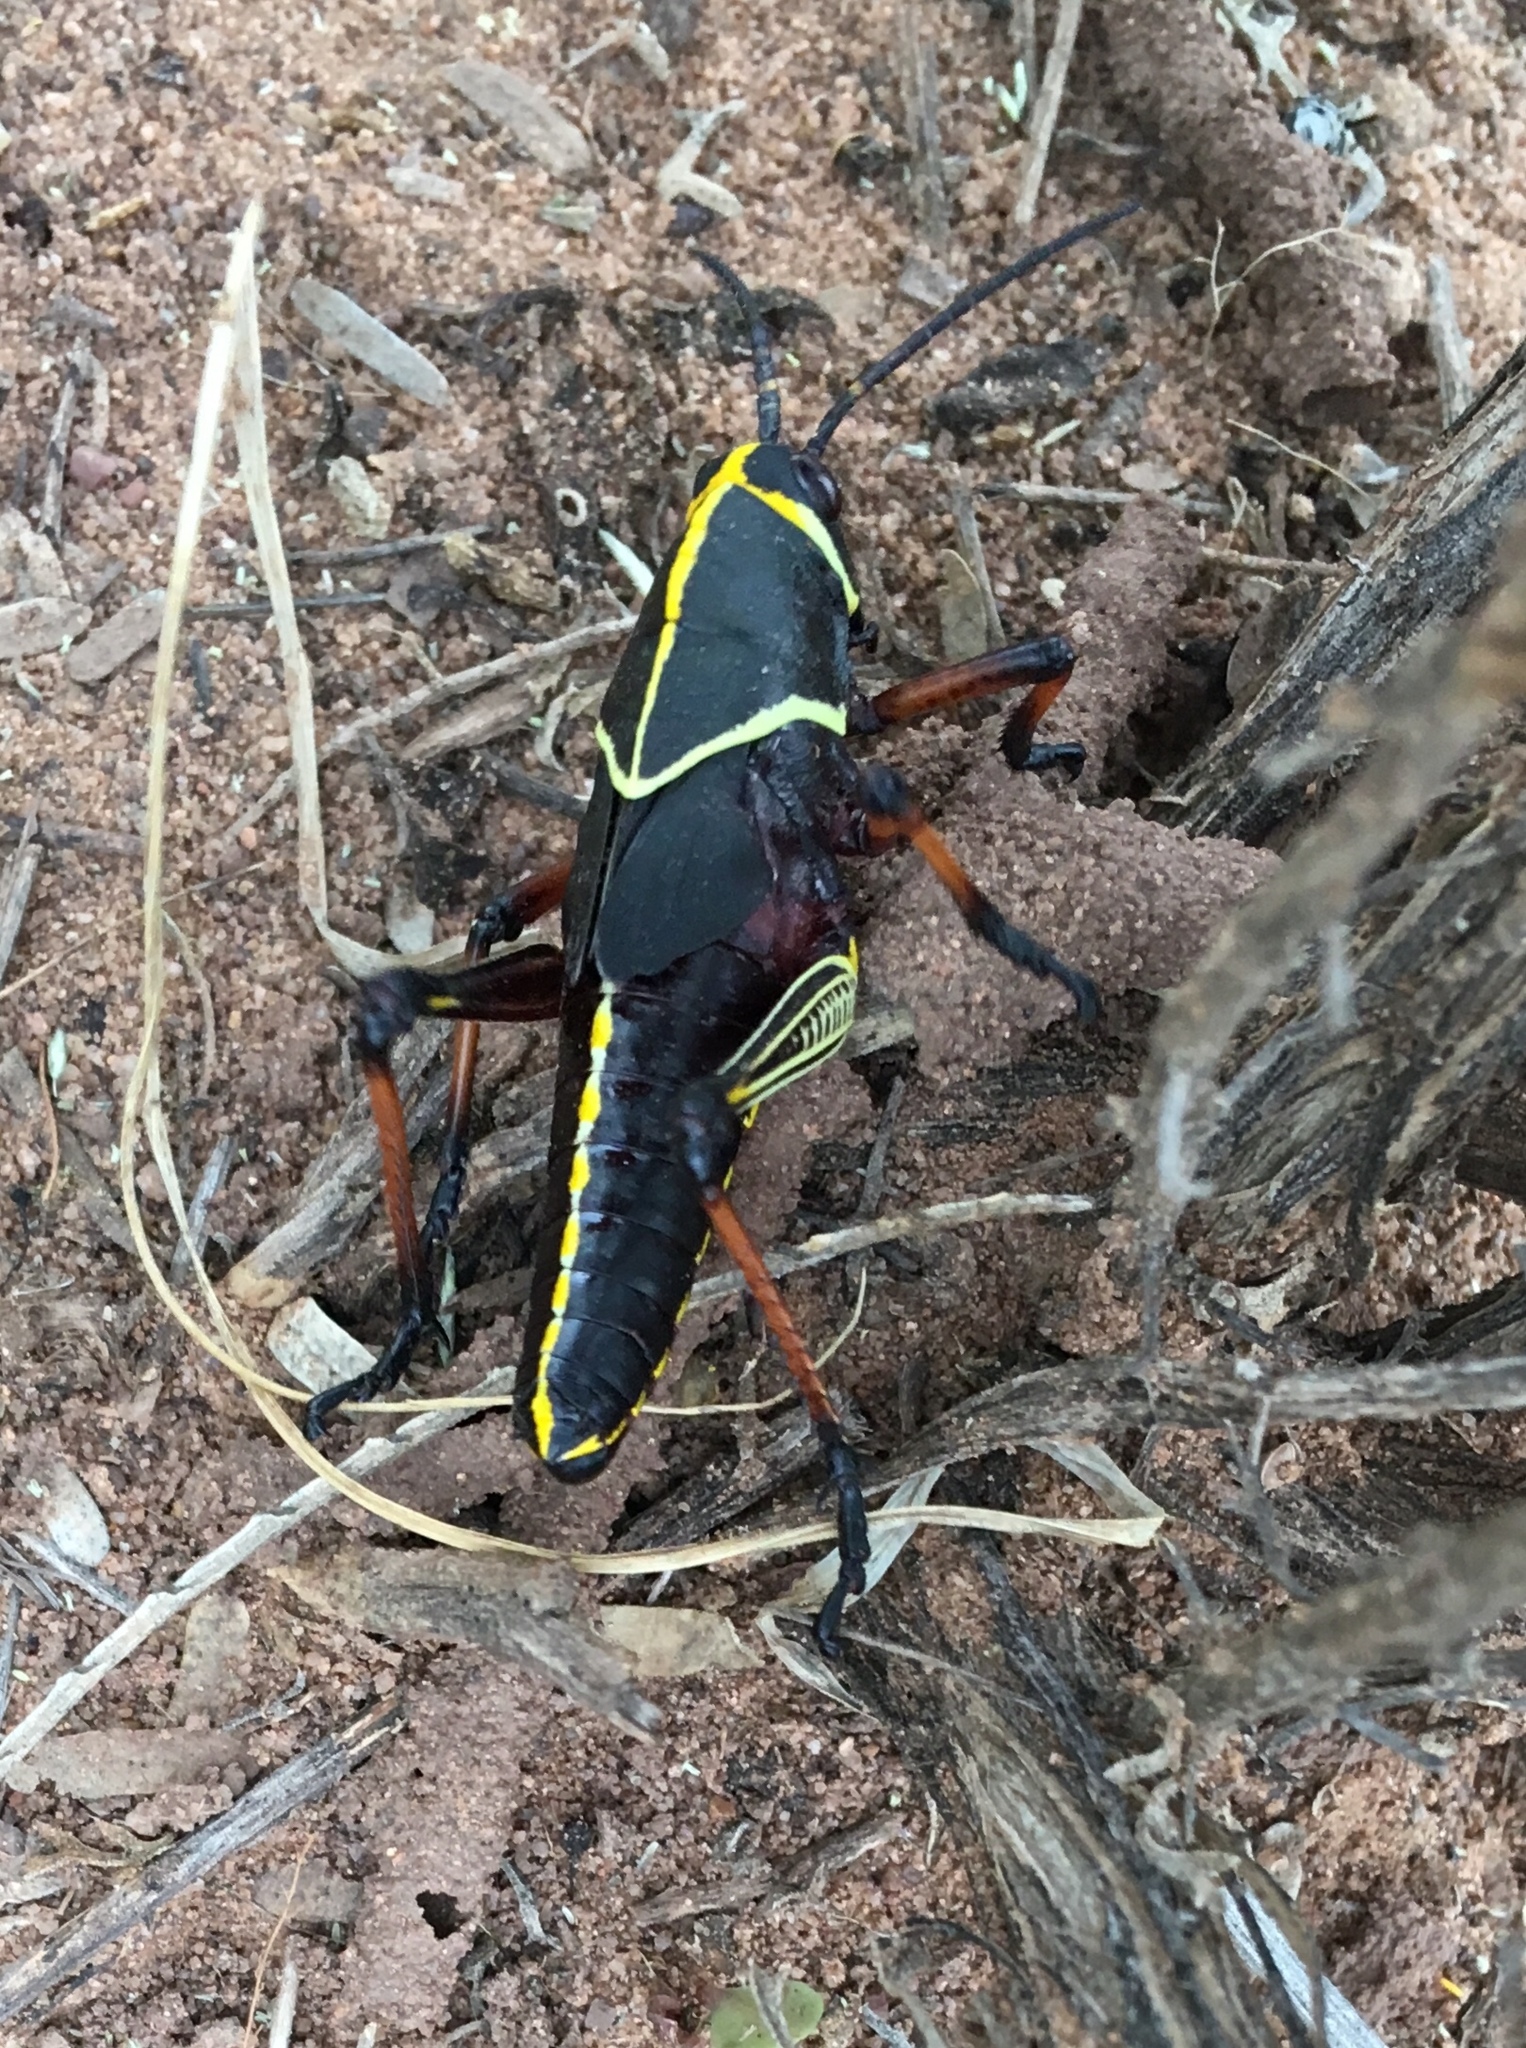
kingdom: Animalia
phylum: Arthropoda
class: Insecta
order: Orthoptera
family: Romaleidae
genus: Romalea
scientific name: Romalea
